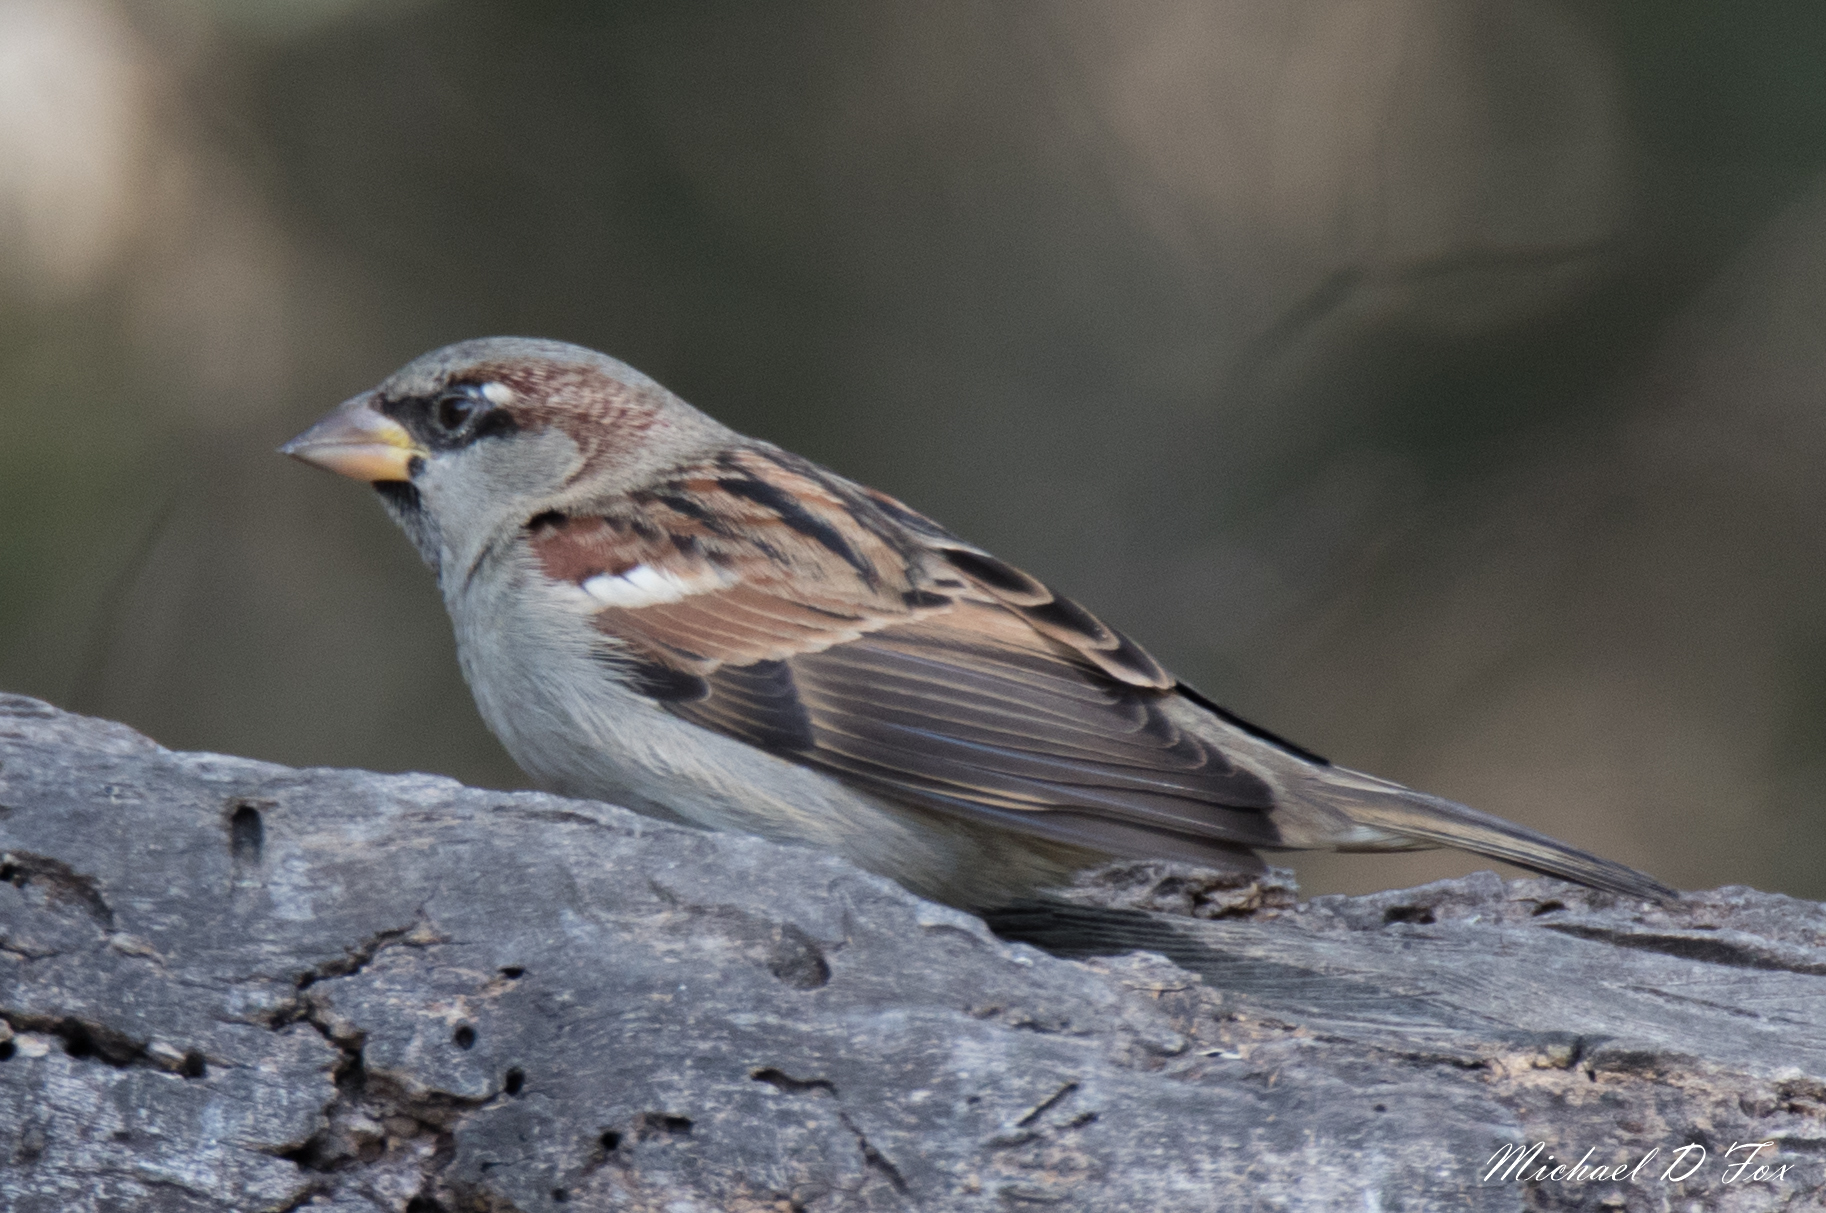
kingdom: Animalia
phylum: Chordata
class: Aves
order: Passeriformes
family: Passeridae
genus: Passer
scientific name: Passer domesticus
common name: House sparrow
